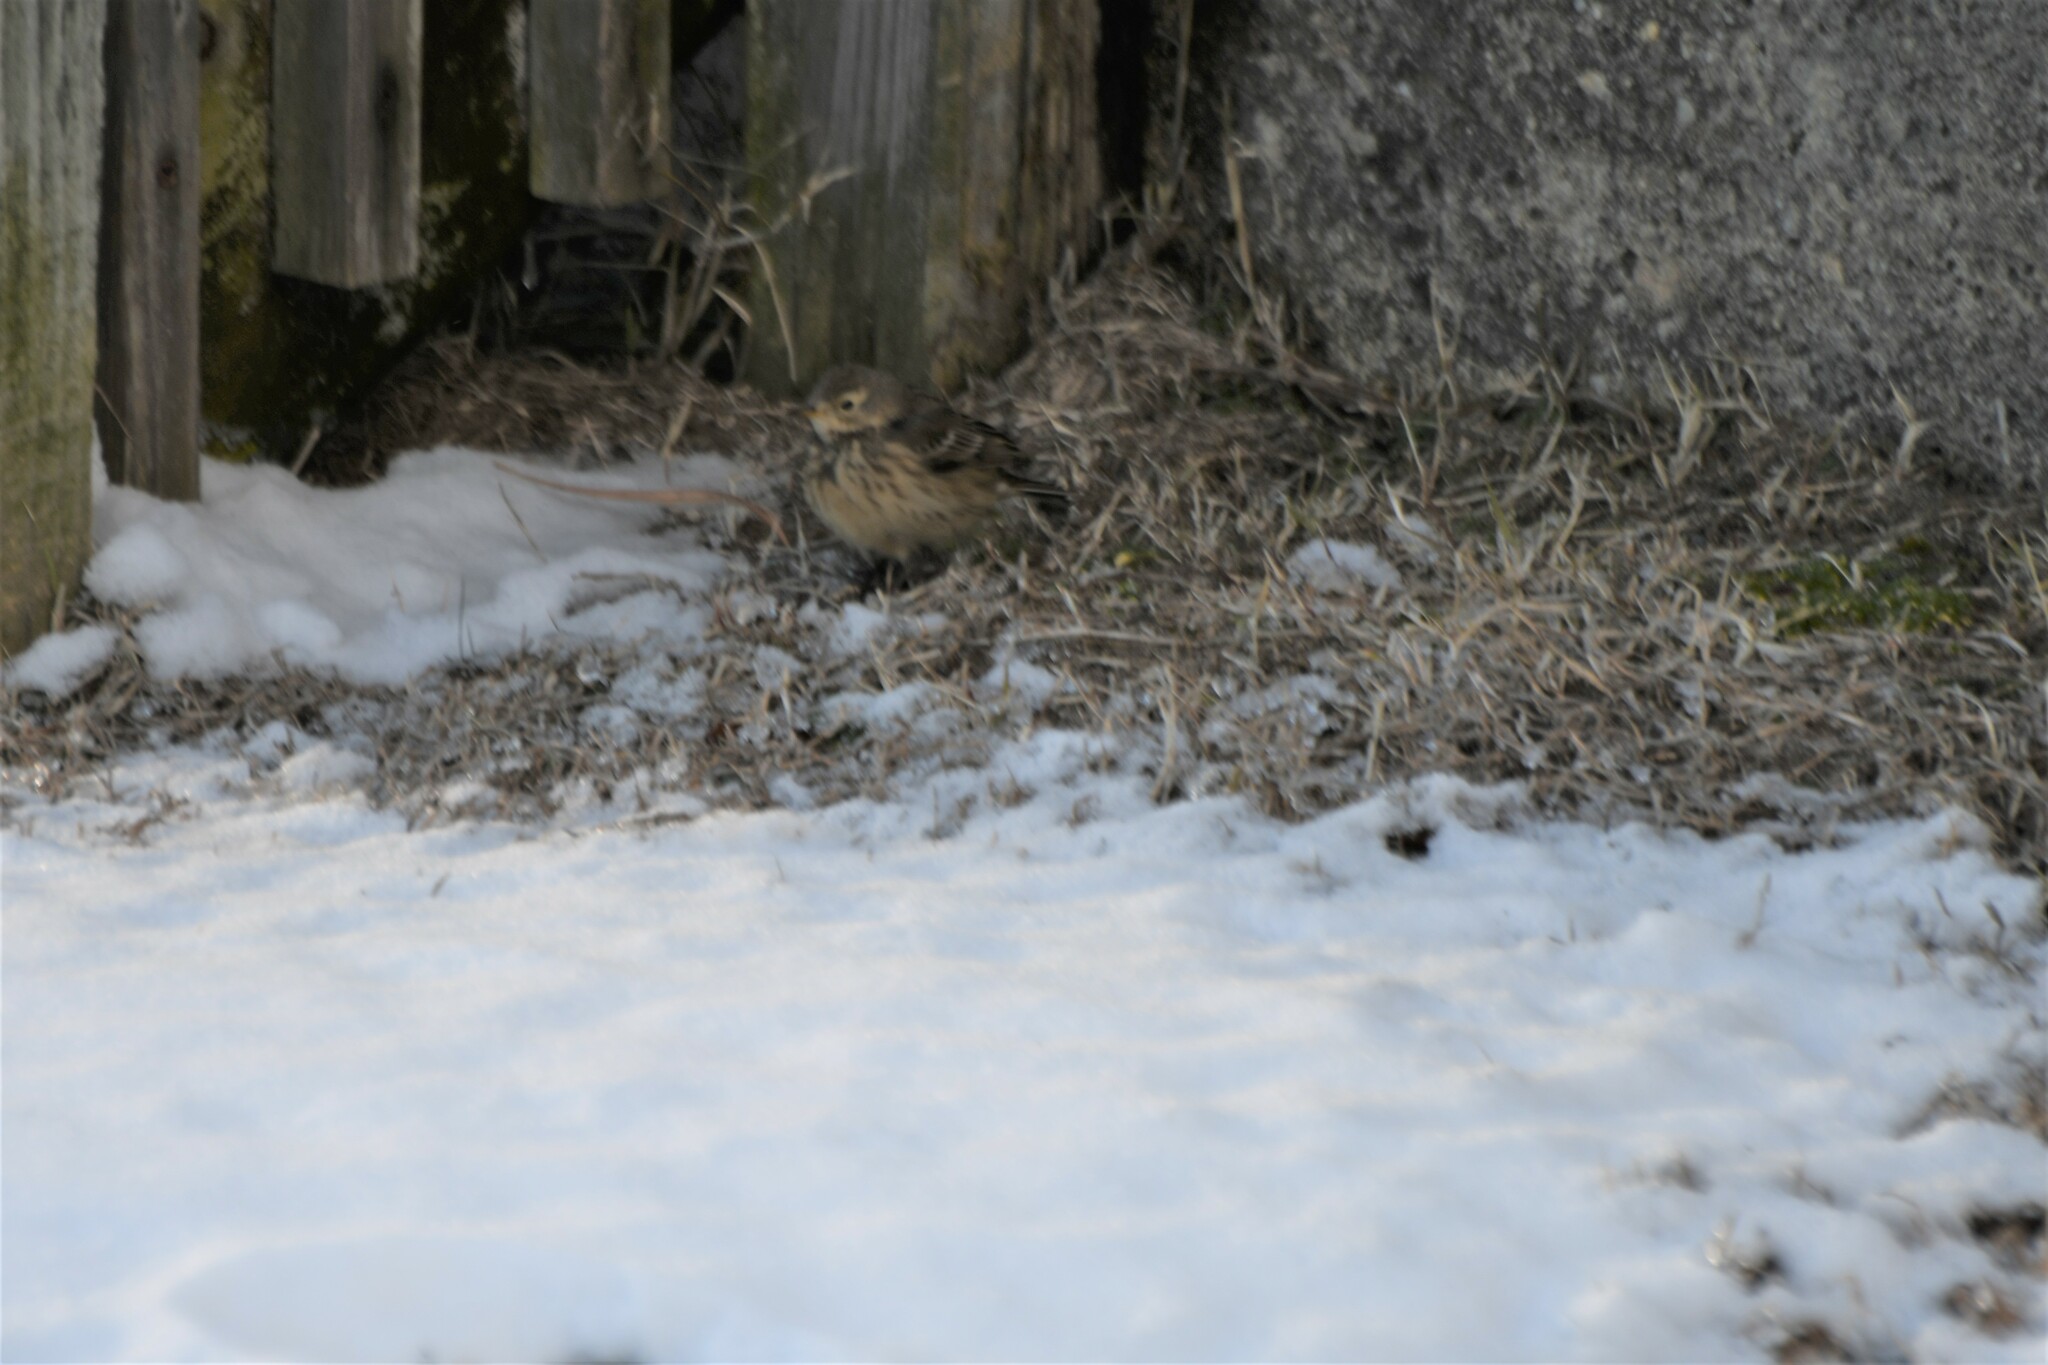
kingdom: Animalia
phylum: Chordata
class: Aves
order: Passeriformes
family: Motacillidae
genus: Anthus
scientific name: Anthus rubescens
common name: Buff-bellied pipit
